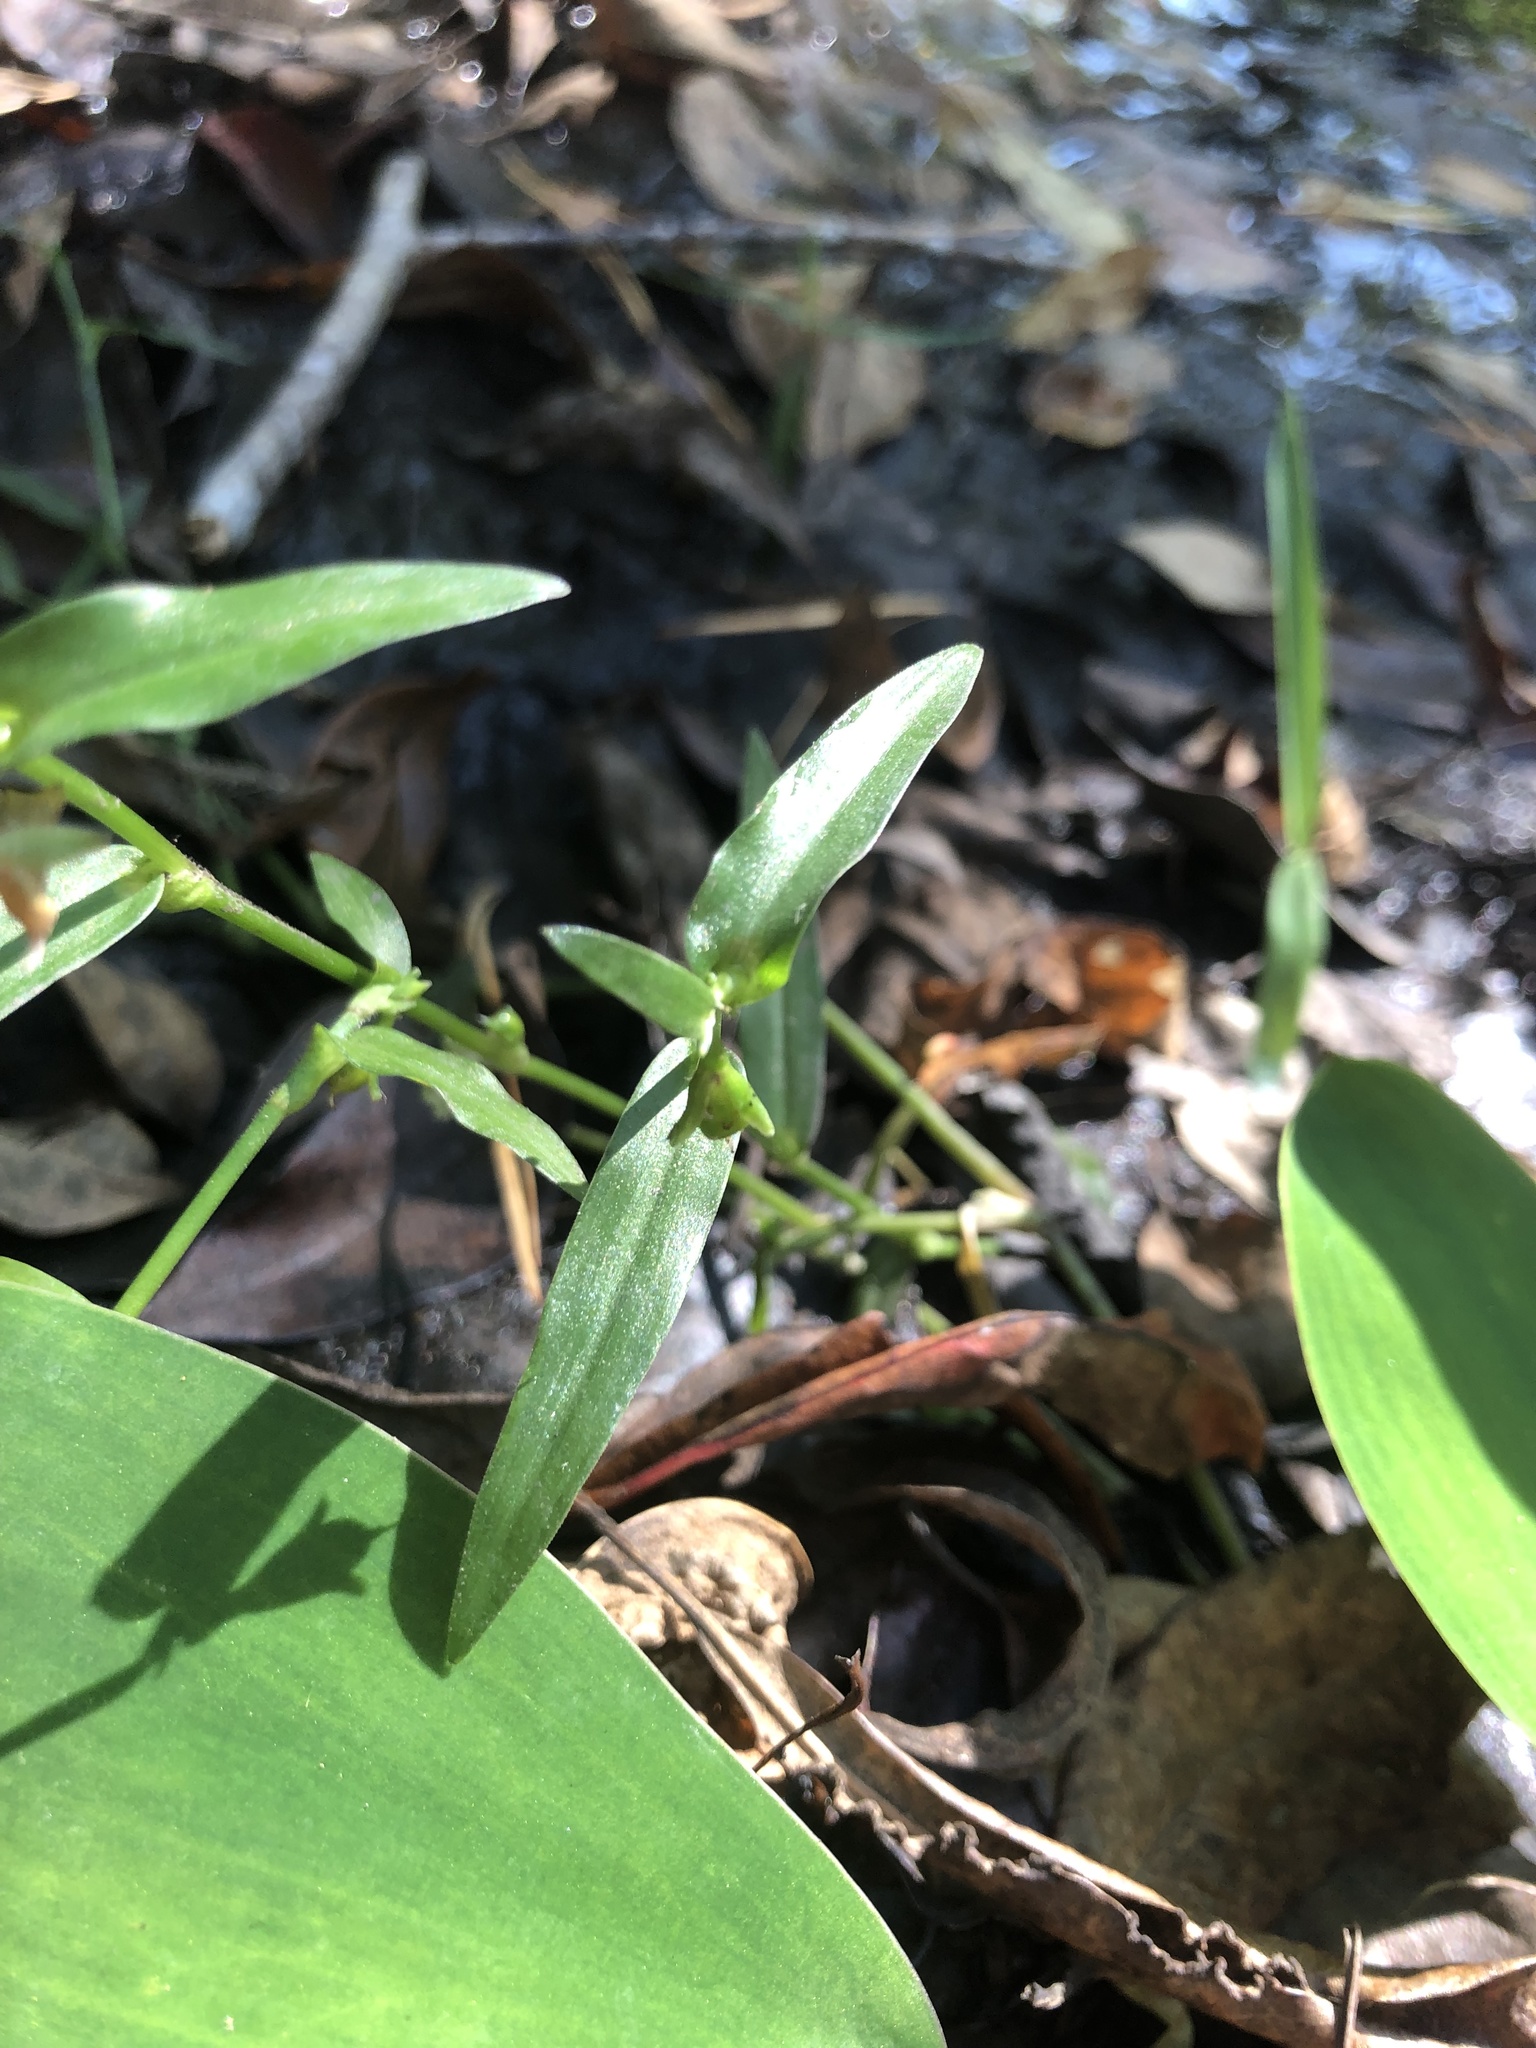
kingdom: Plantae
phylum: Tracheophyta
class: Liliopsida
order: Commelinales
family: Commelinaceae
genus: Murdannia
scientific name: Murdannia keisak
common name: Wartremoving herb
